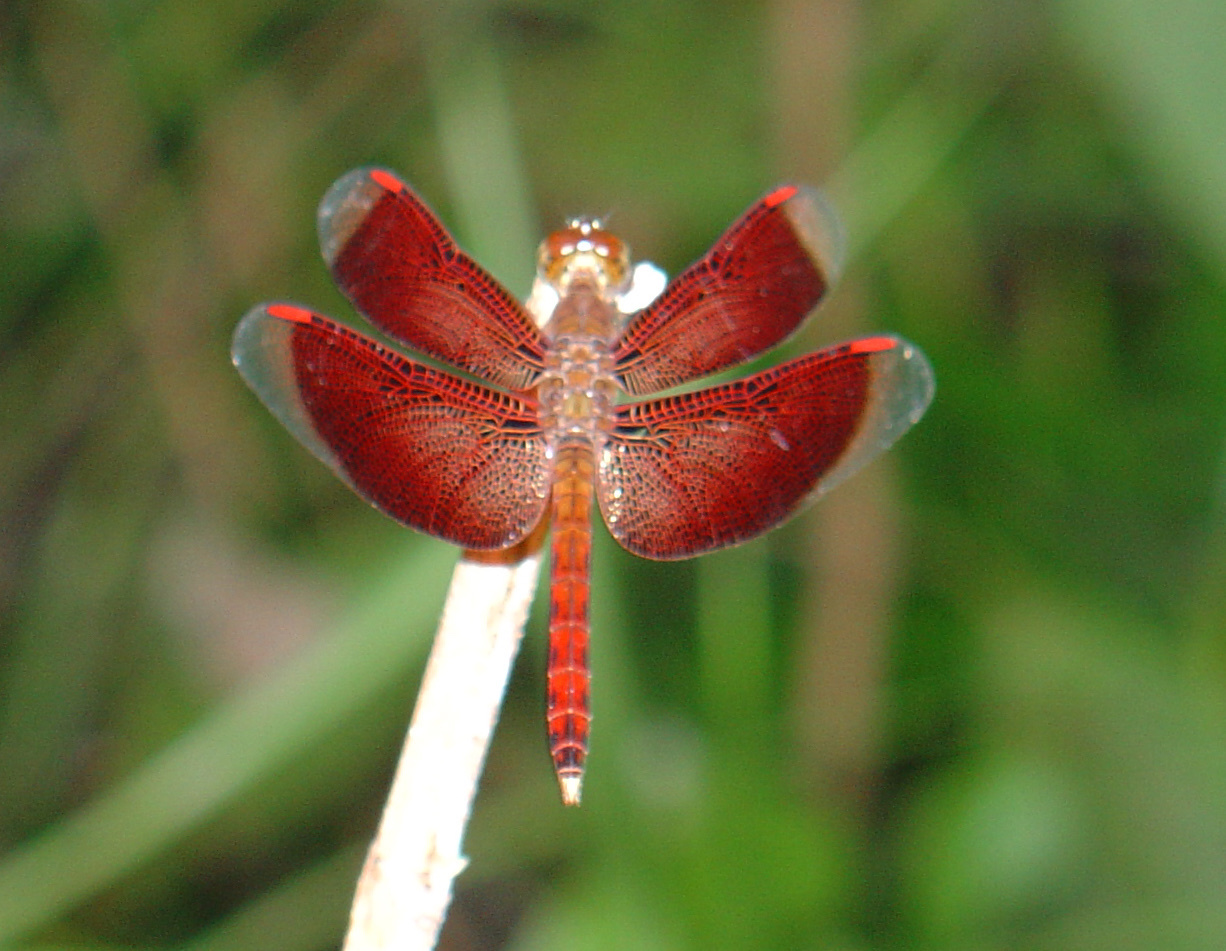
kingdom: Animalia
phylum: Arthropoda
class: Insecta
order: Odonata
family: Libellulidae
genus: Neurothemis
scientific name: Neurothemis fluctuans
